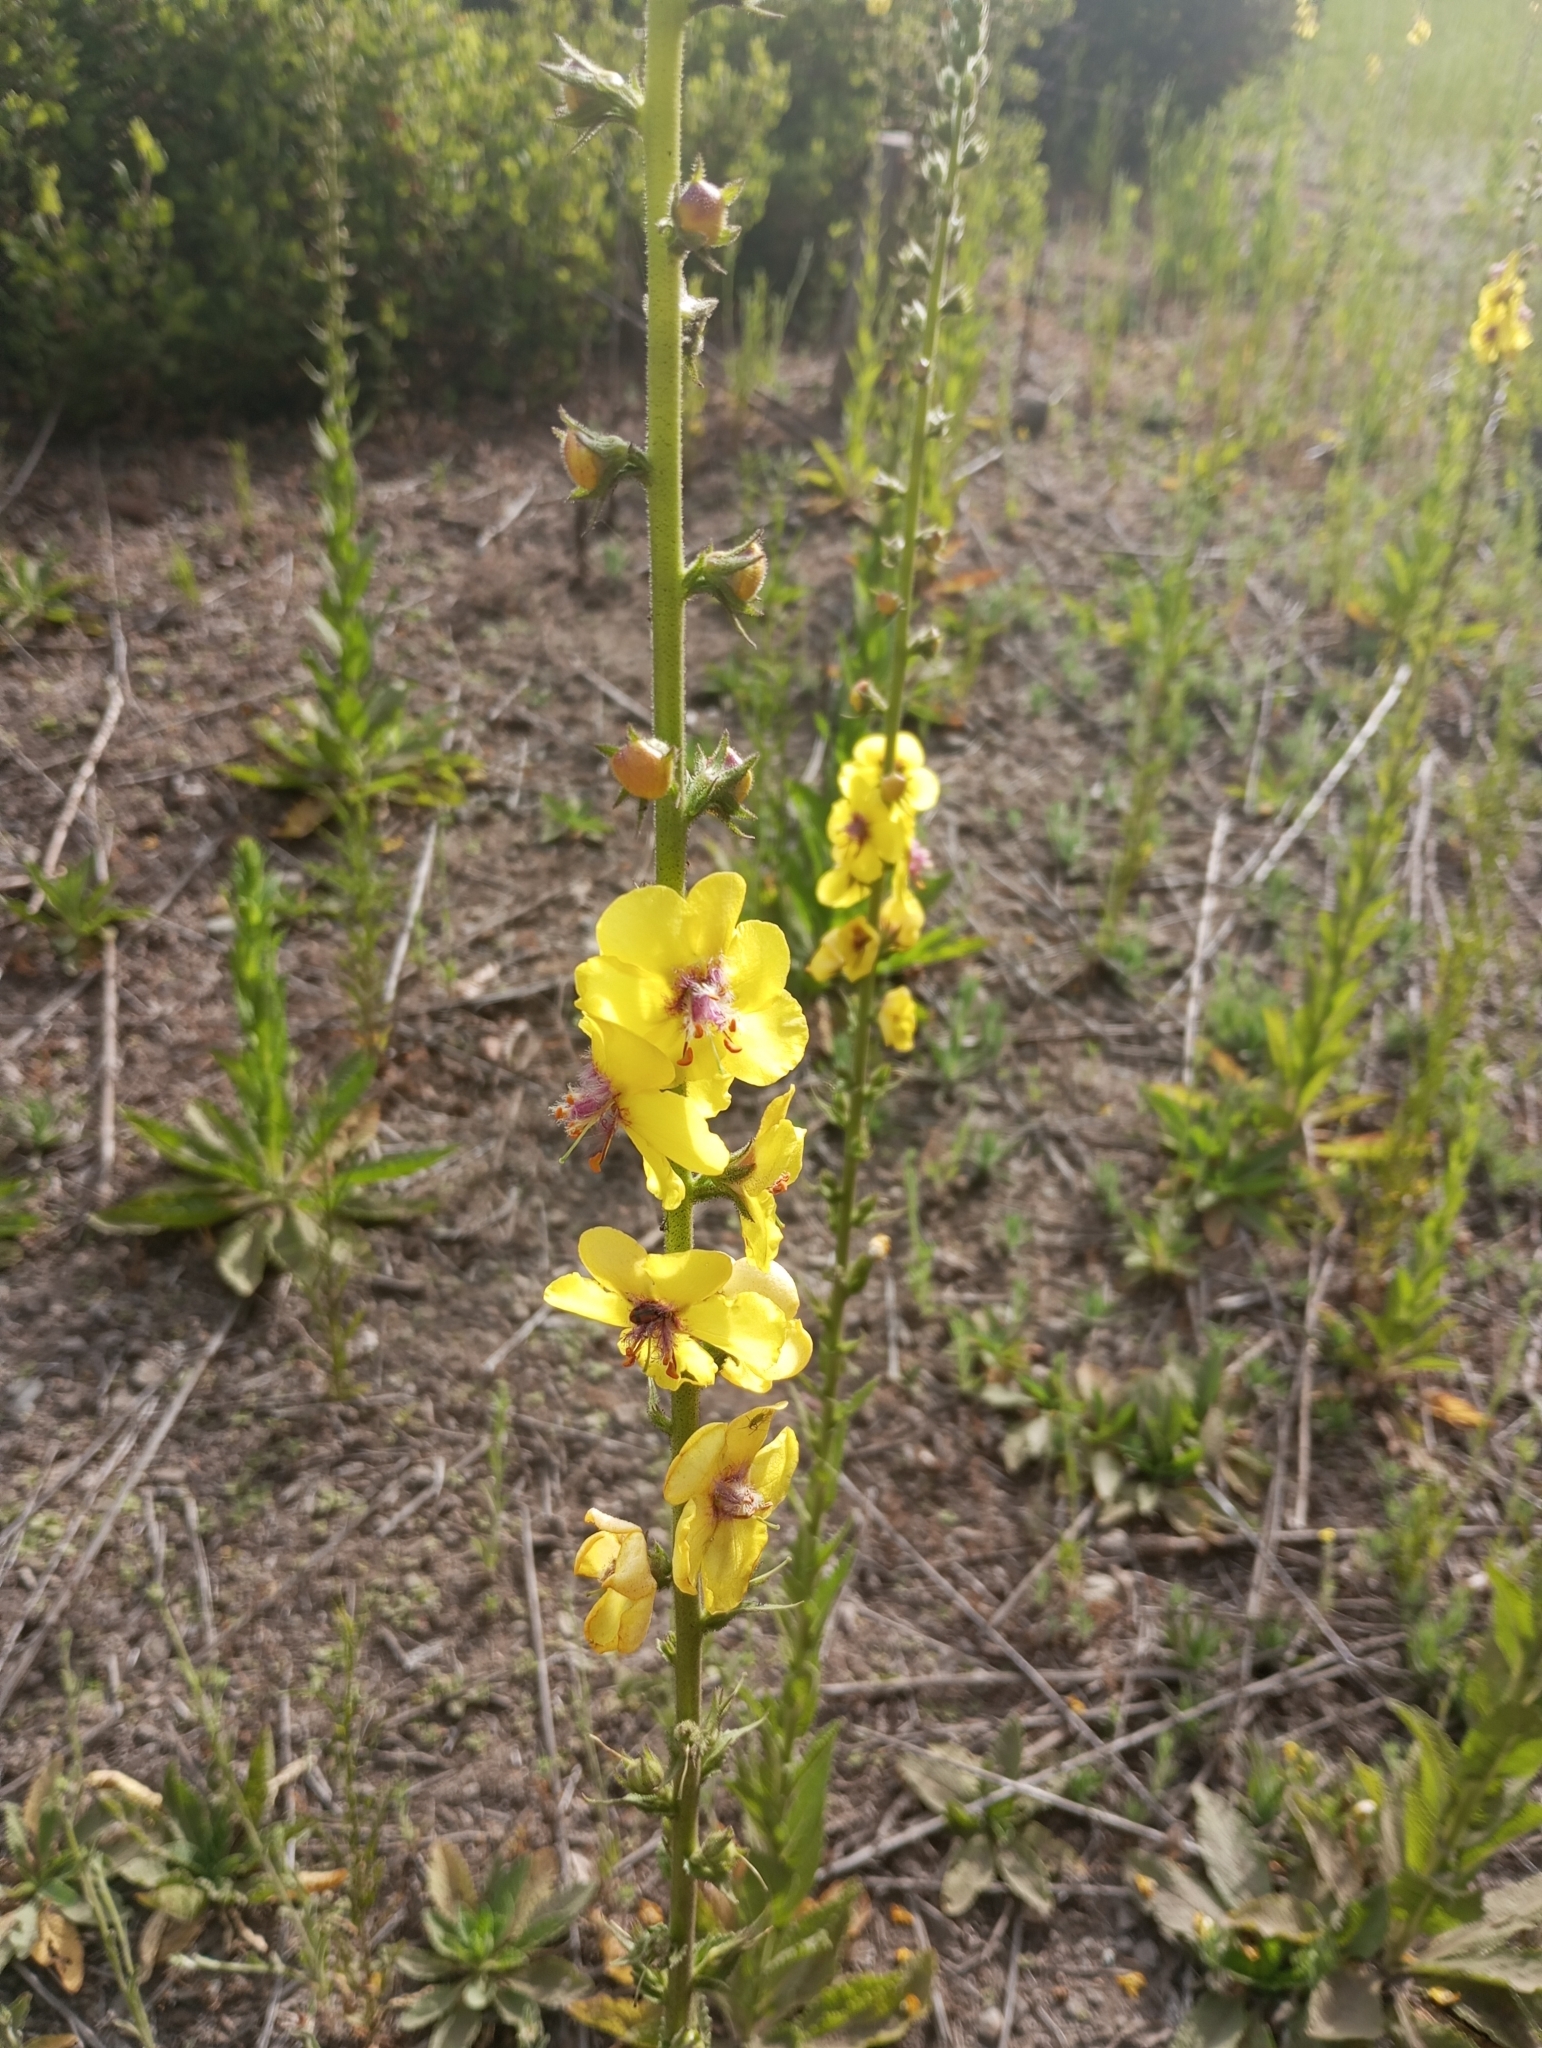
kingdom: Plantae
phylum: Tracheophyta
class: Magnoliopsida
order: Lamiales
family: Scrophulariaceae
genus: Verbascum
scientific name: Verbascum virgatum
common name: Twiggy mullein
